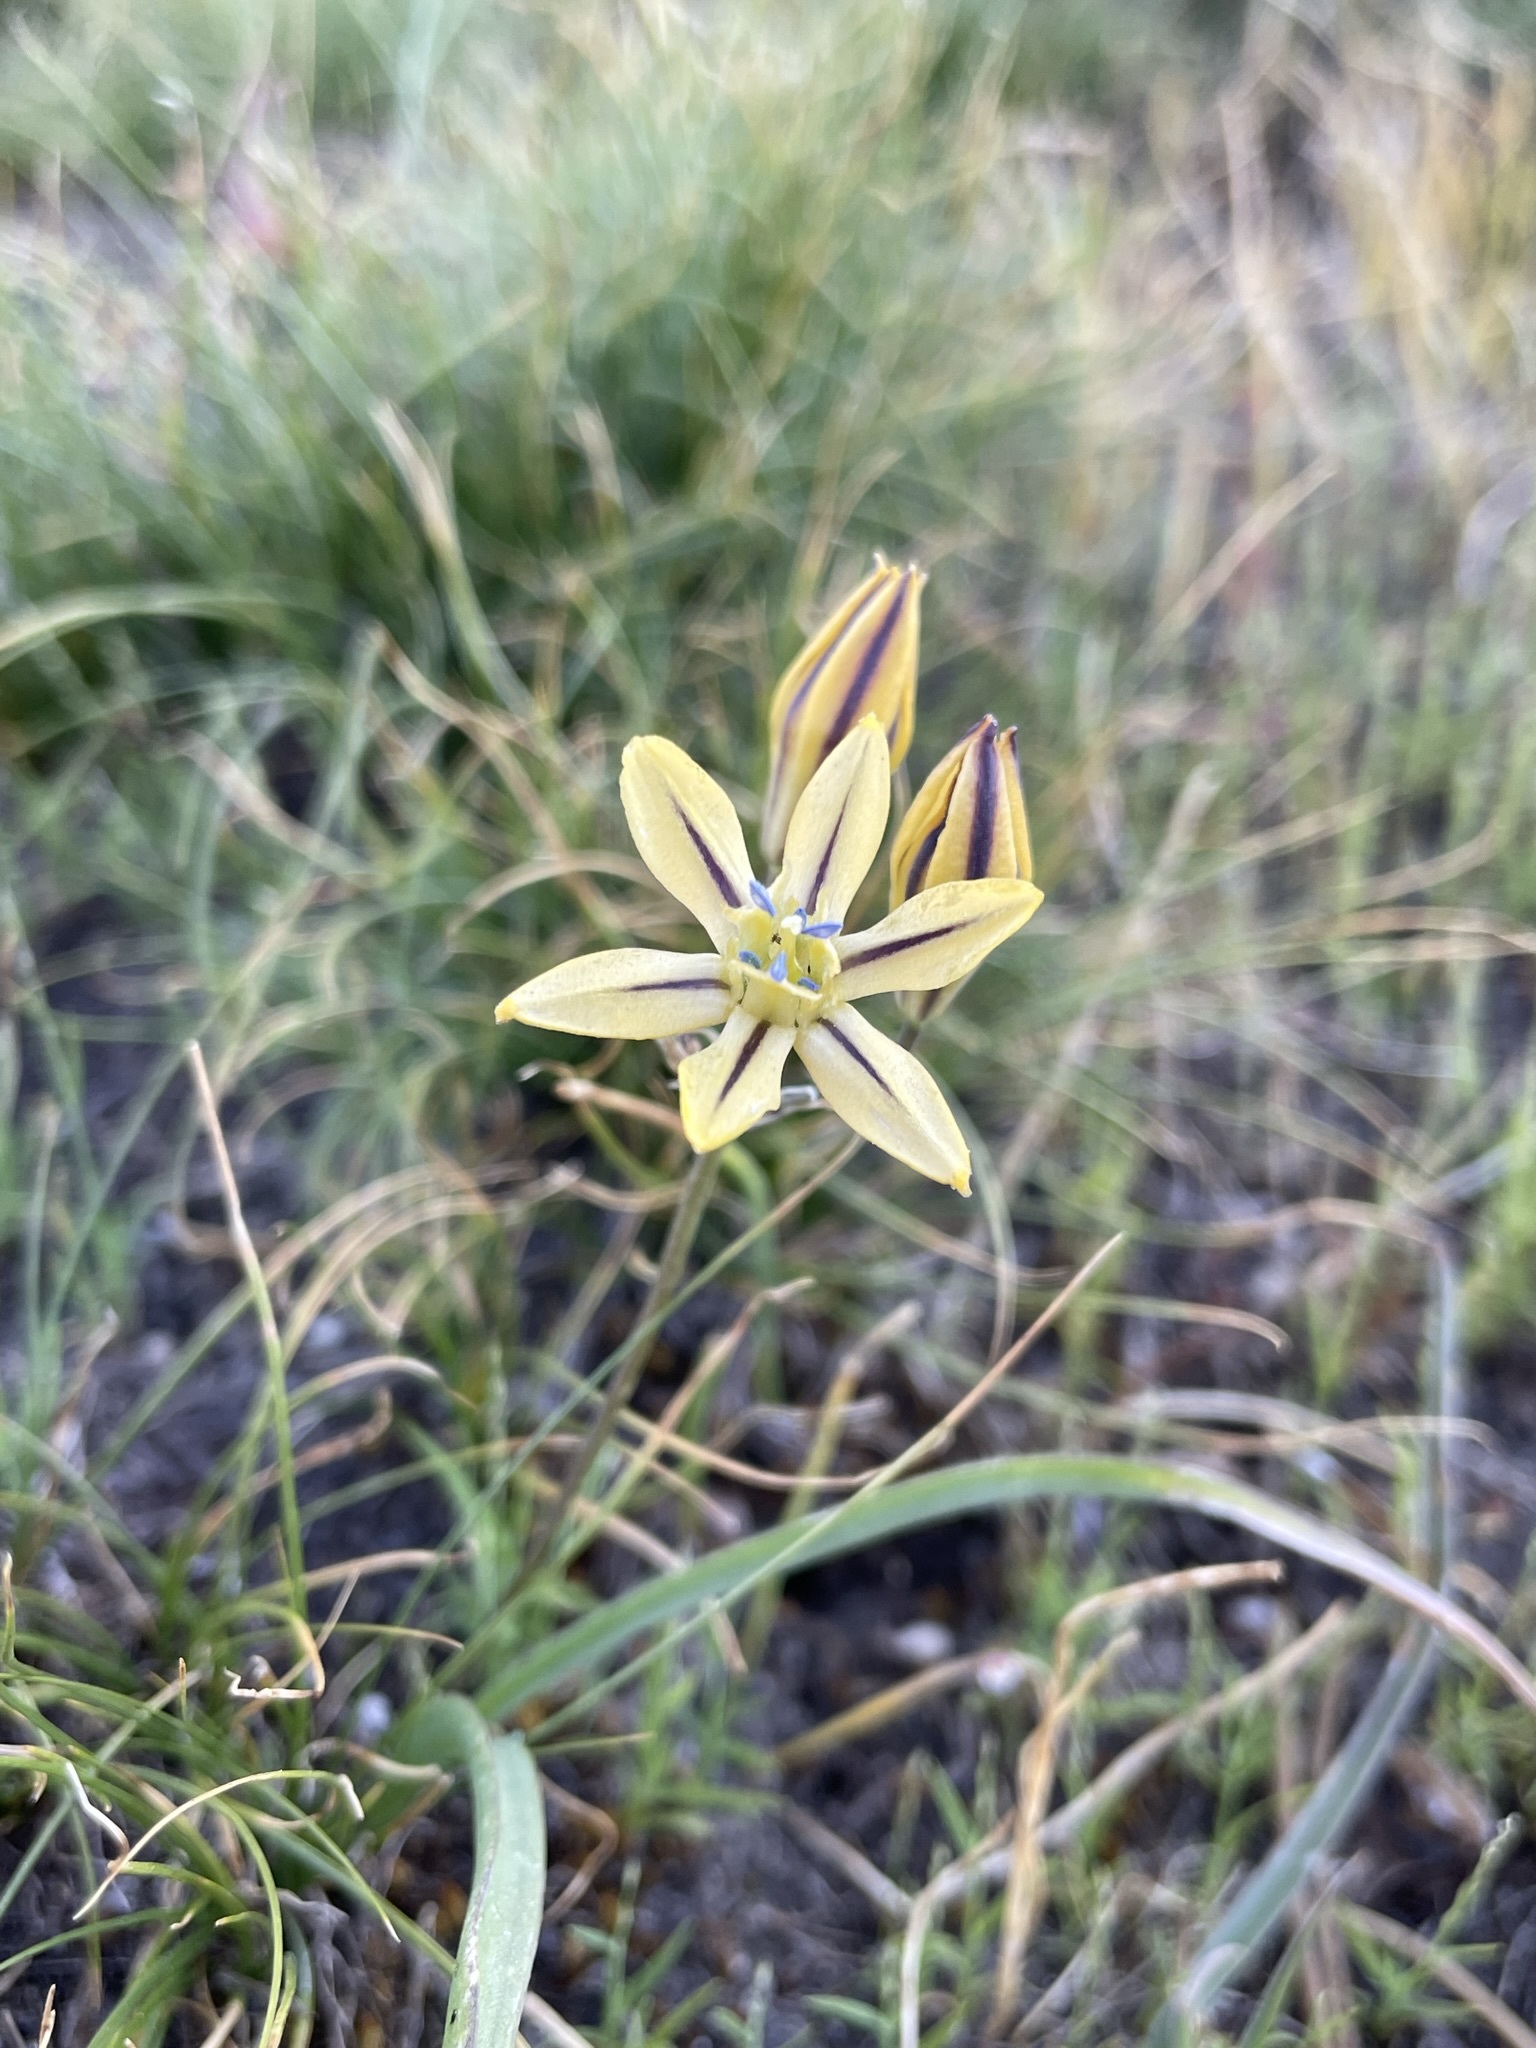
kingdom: Plantae
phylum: Tracheophyta
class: Liliopsida
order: Asparagales
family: Asparagaceae
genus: Triteleia
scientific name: Triteleia ixioides
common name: Yellow-brodiaea
